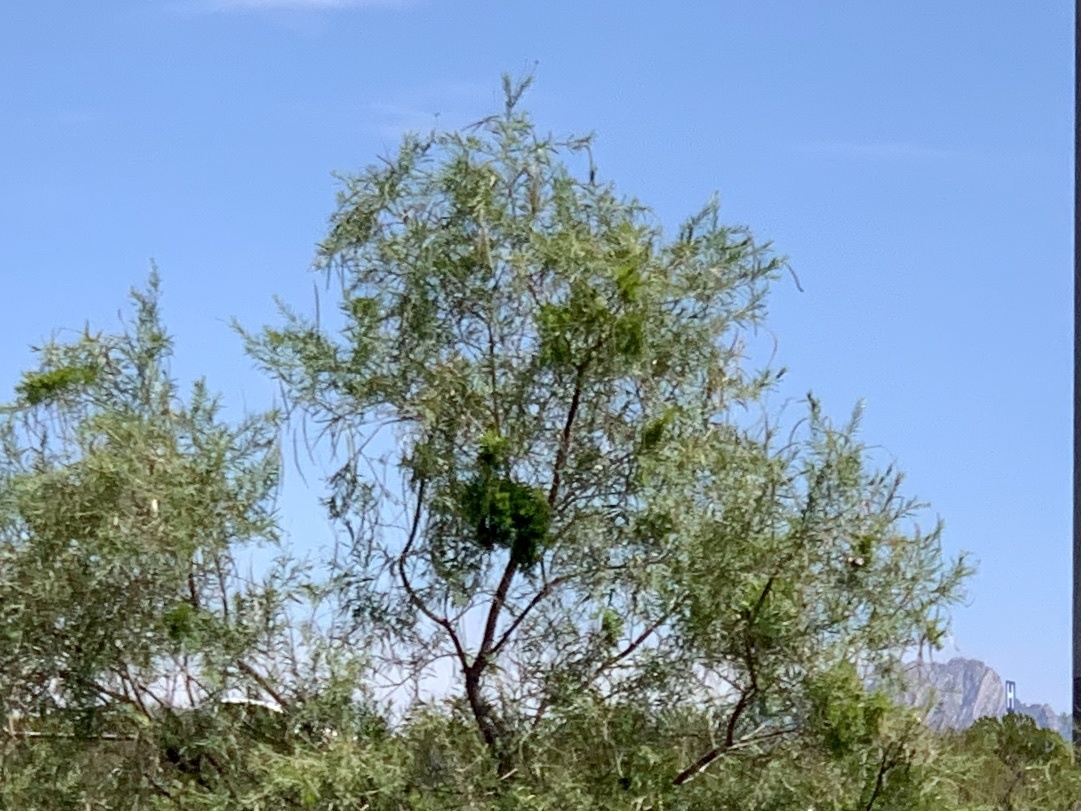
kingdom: Plantae
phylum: Tracheophyta
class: Magnoliopsida
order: Lamiales
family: Bignoniaceae
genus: Chilopsis
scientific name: Chilopsis linearis
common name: Desert-willow
